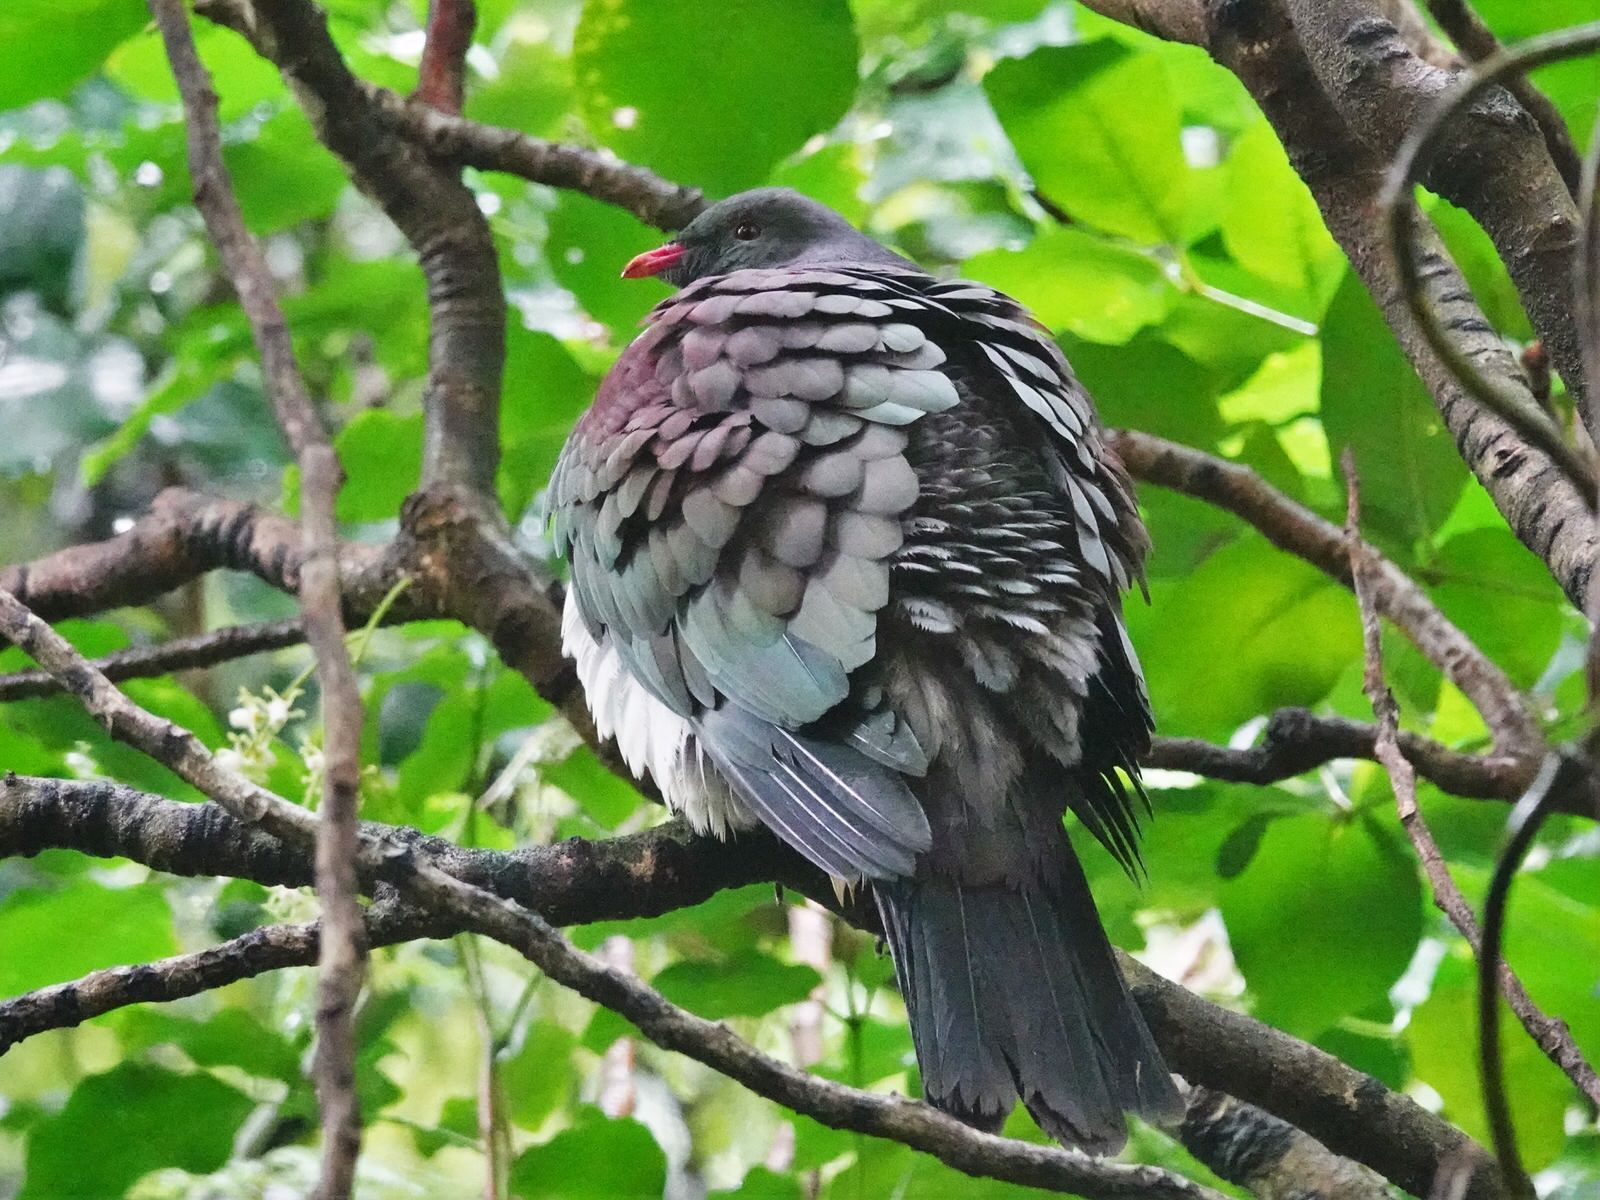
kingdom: Animalia
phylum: Chordata
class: Aves
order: Columbiformes
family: Columbidae
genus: Hemiphaga
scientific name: Hemiphaga novaeseelandiae
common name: New zealand pigeon
